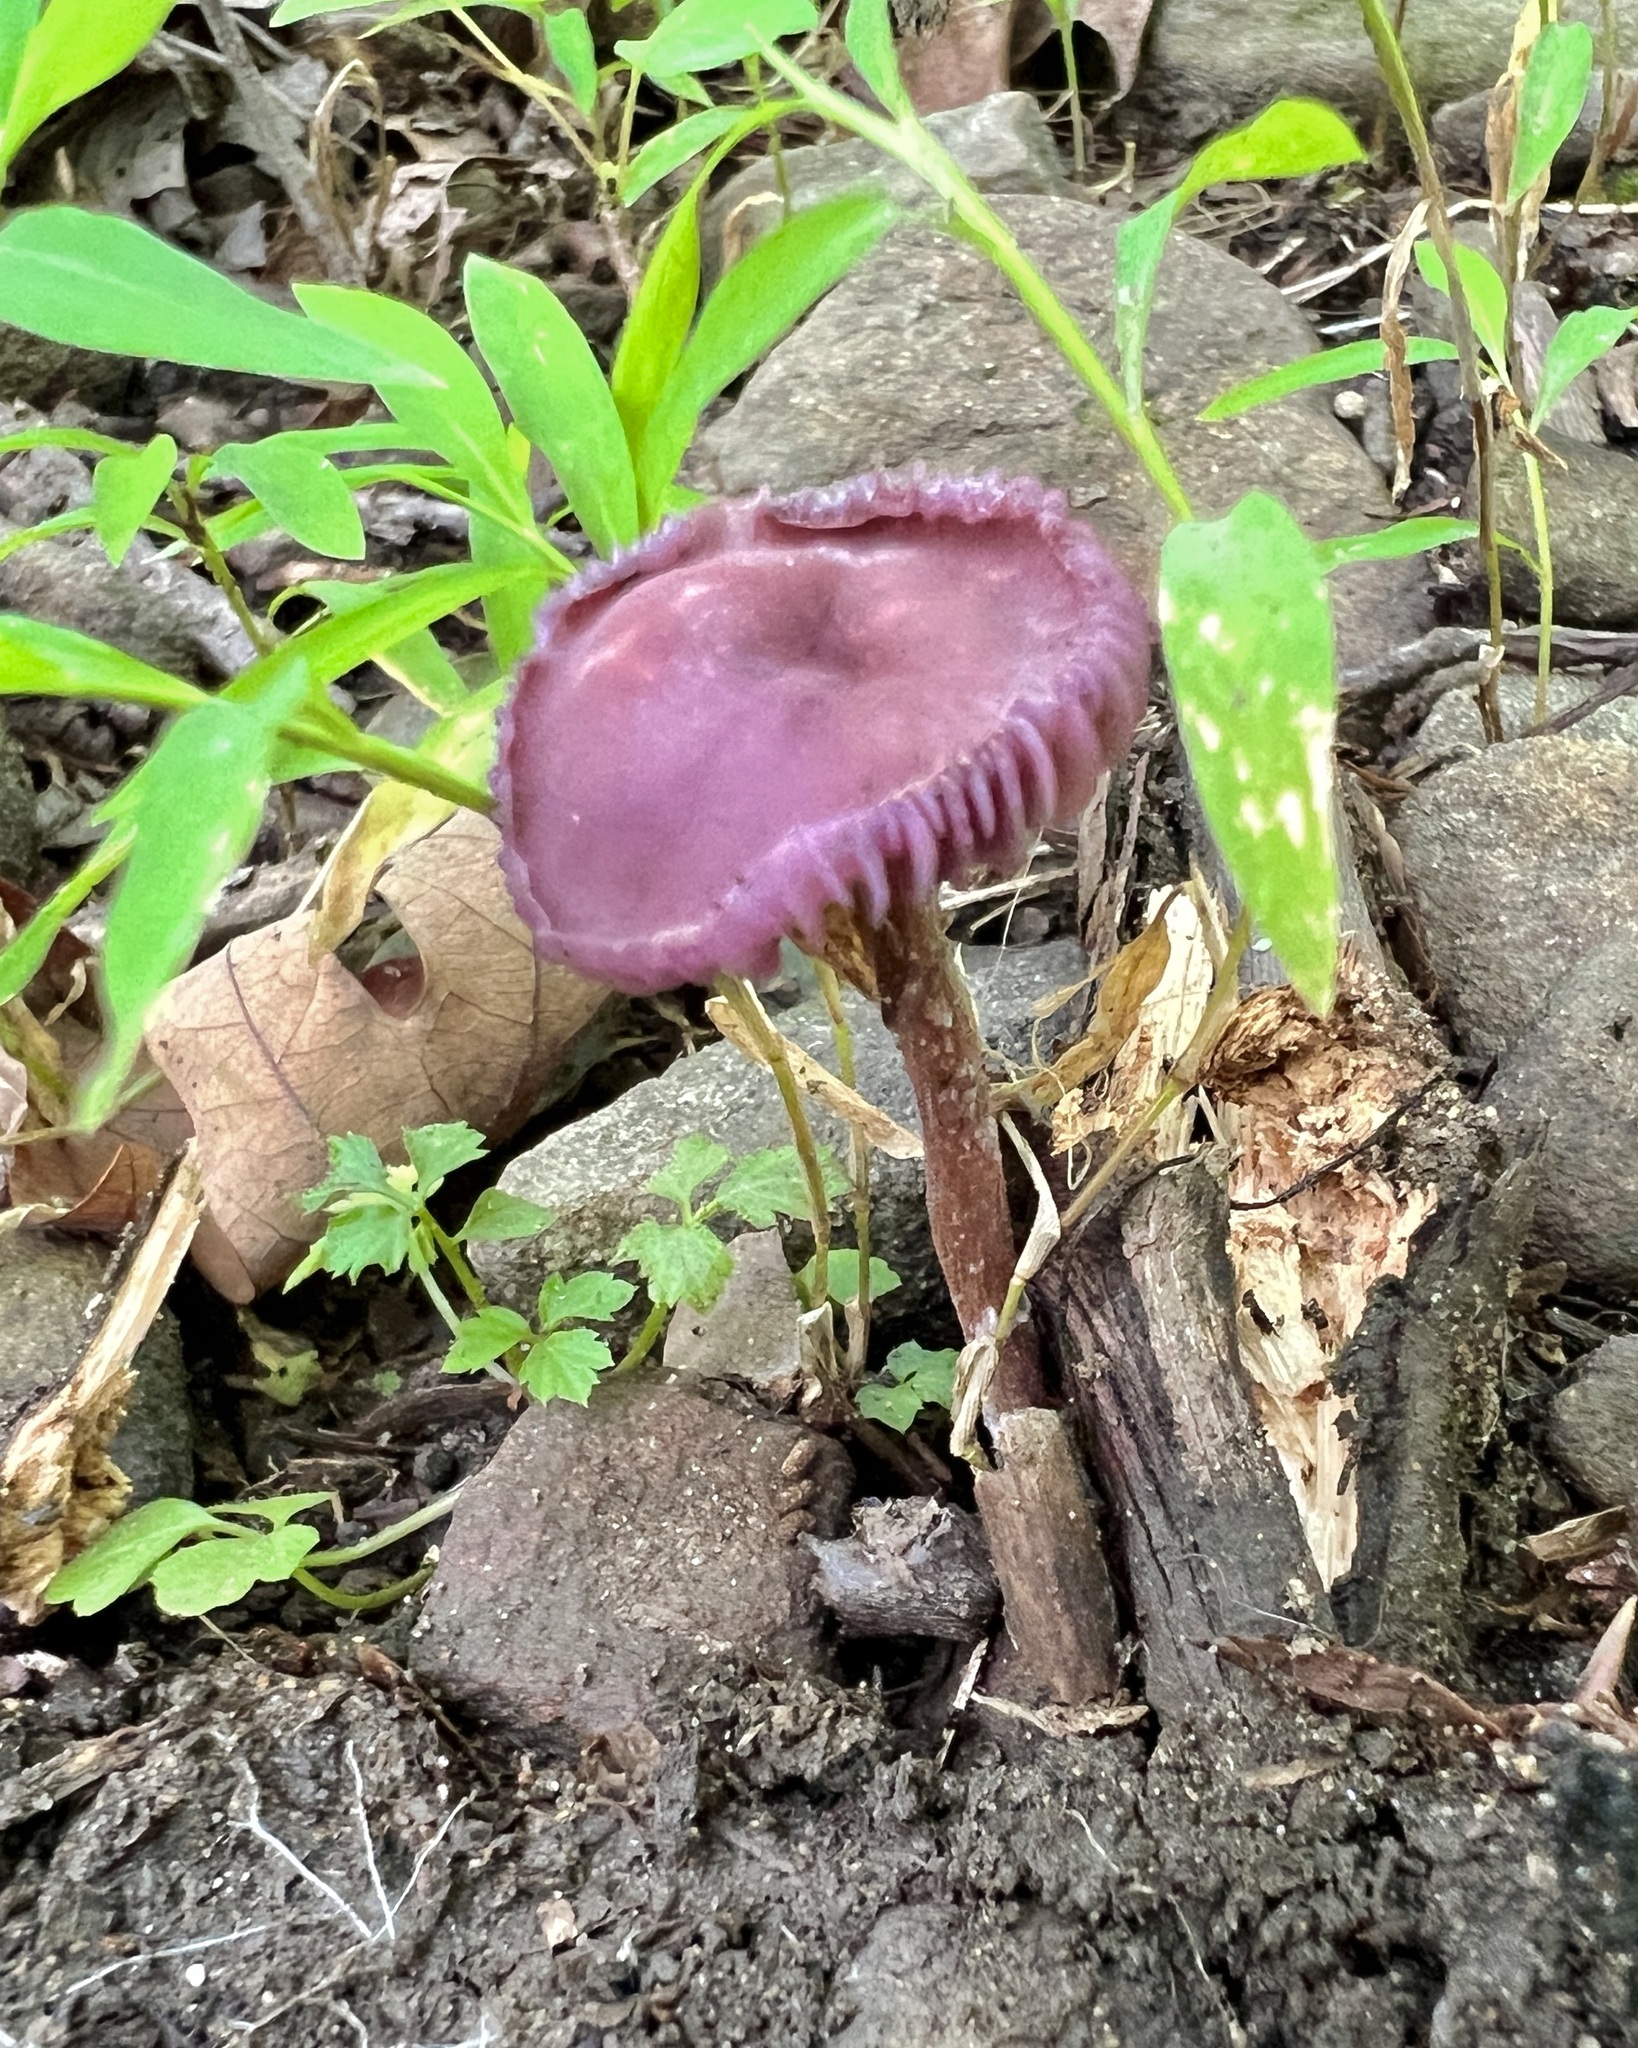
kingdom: Fungi
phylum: Basidiomycota
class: Agaricomycetes
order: Agaricales
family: Hydnangiaceae
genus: Laccaria
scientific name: Laccaria amethystina
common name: Amethyst deceiver
